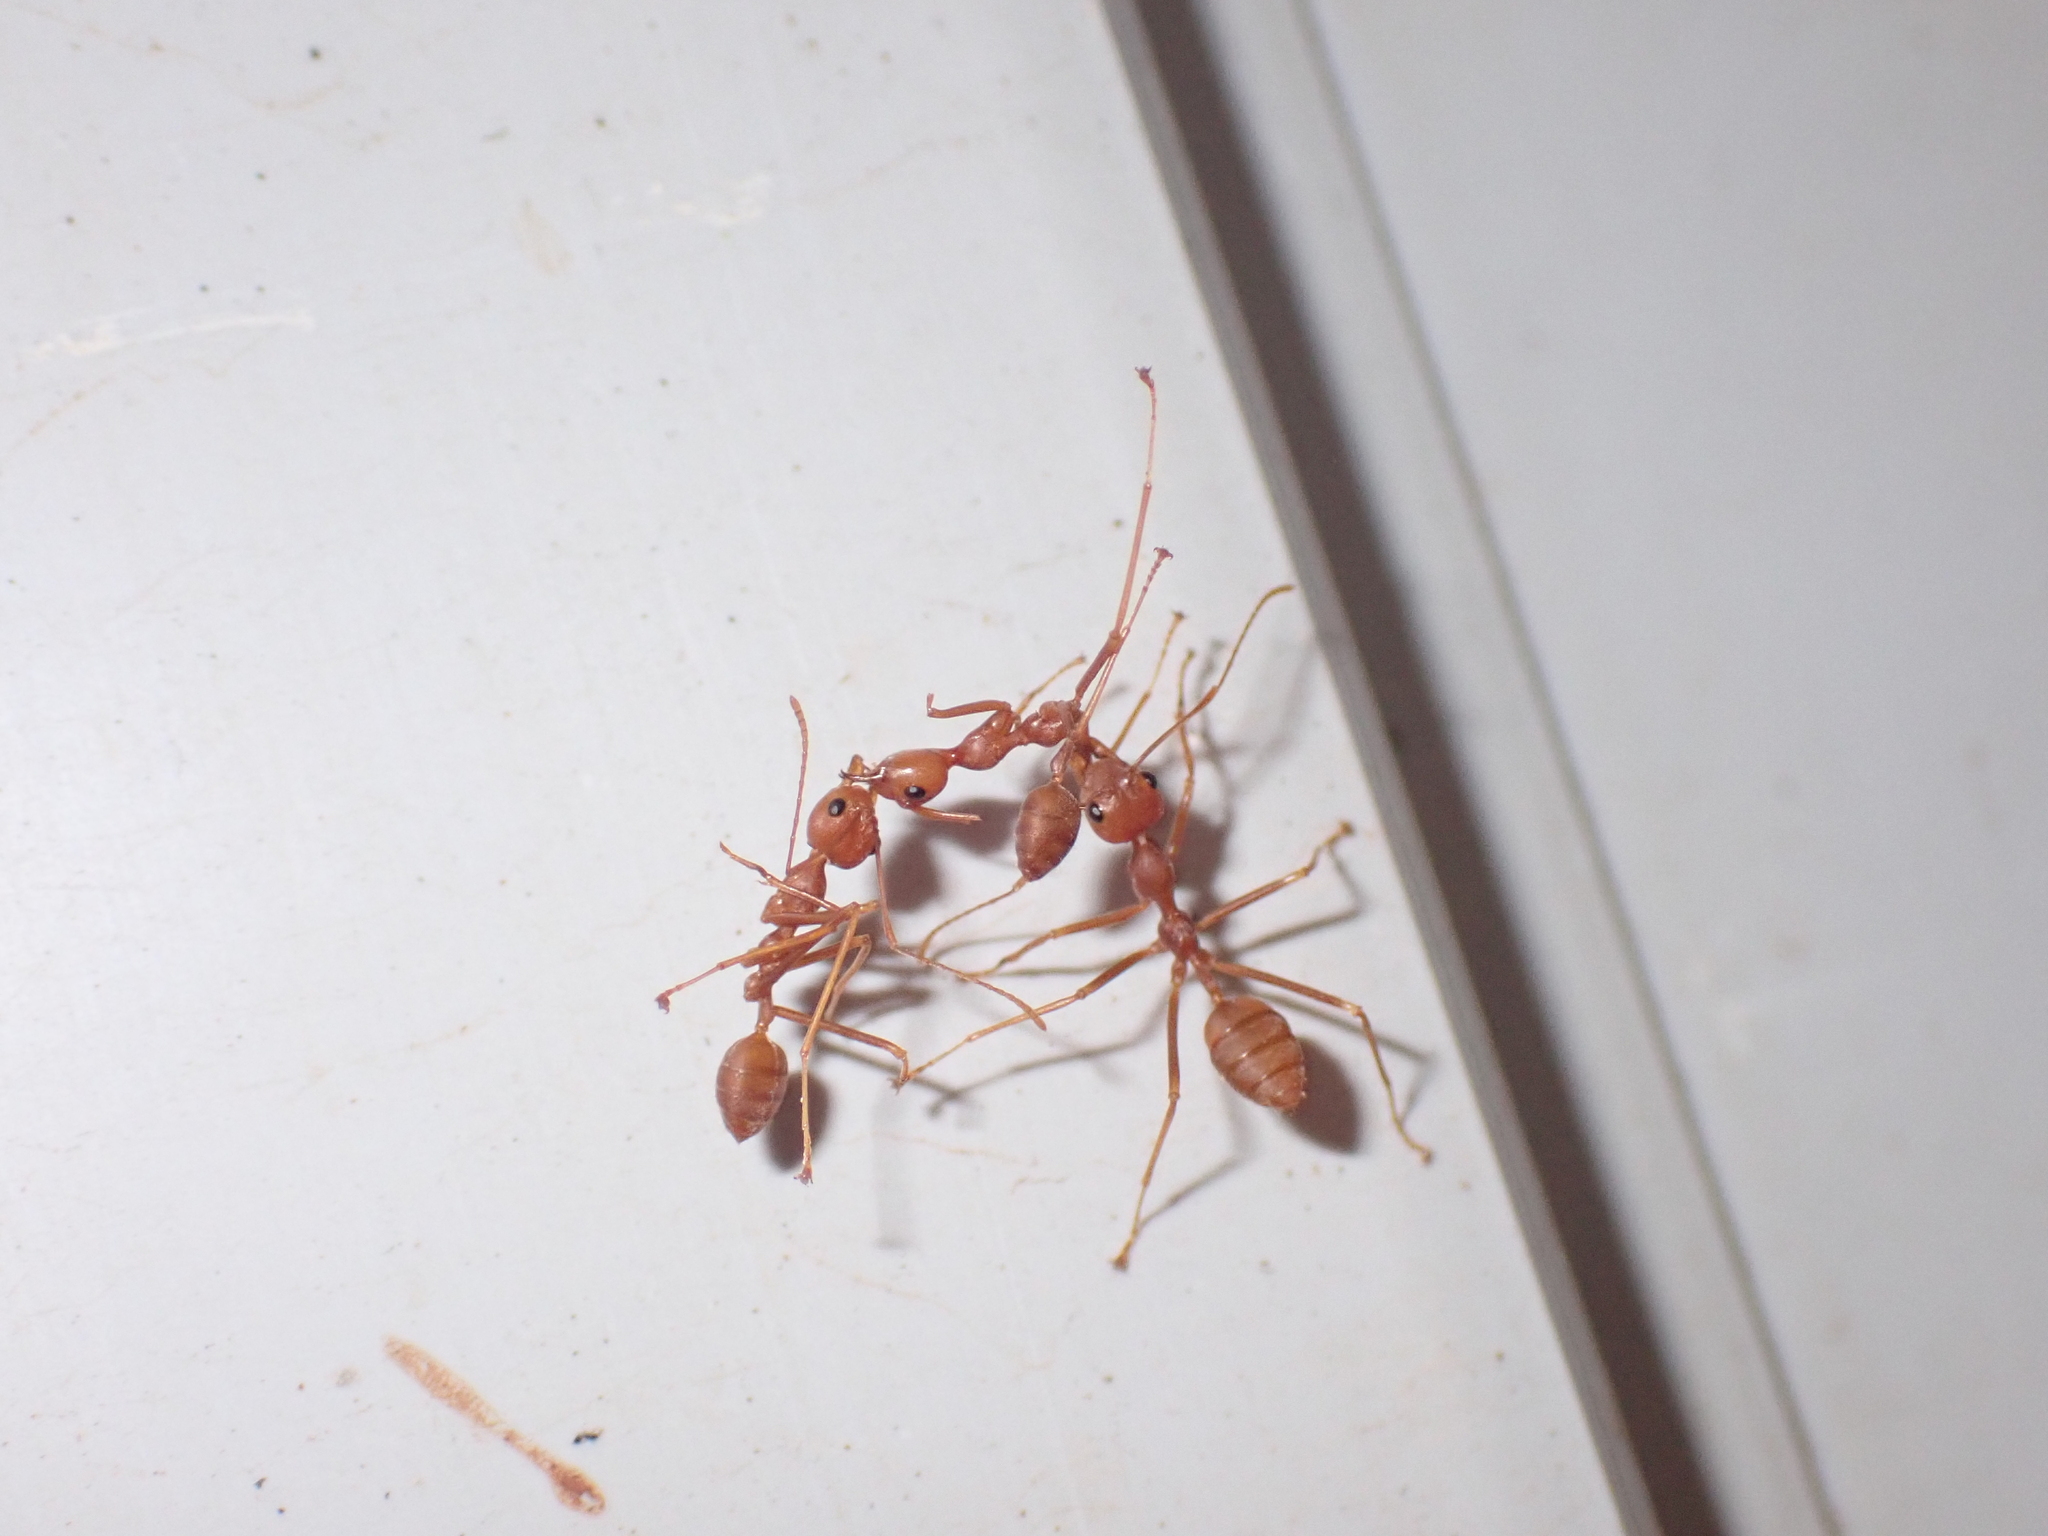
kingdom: Animalia
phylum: Arthropoda
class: Insecta
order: Hymenoptera
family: Formicidae
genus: Oecophylla
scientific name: Oecophylla smaragdina
